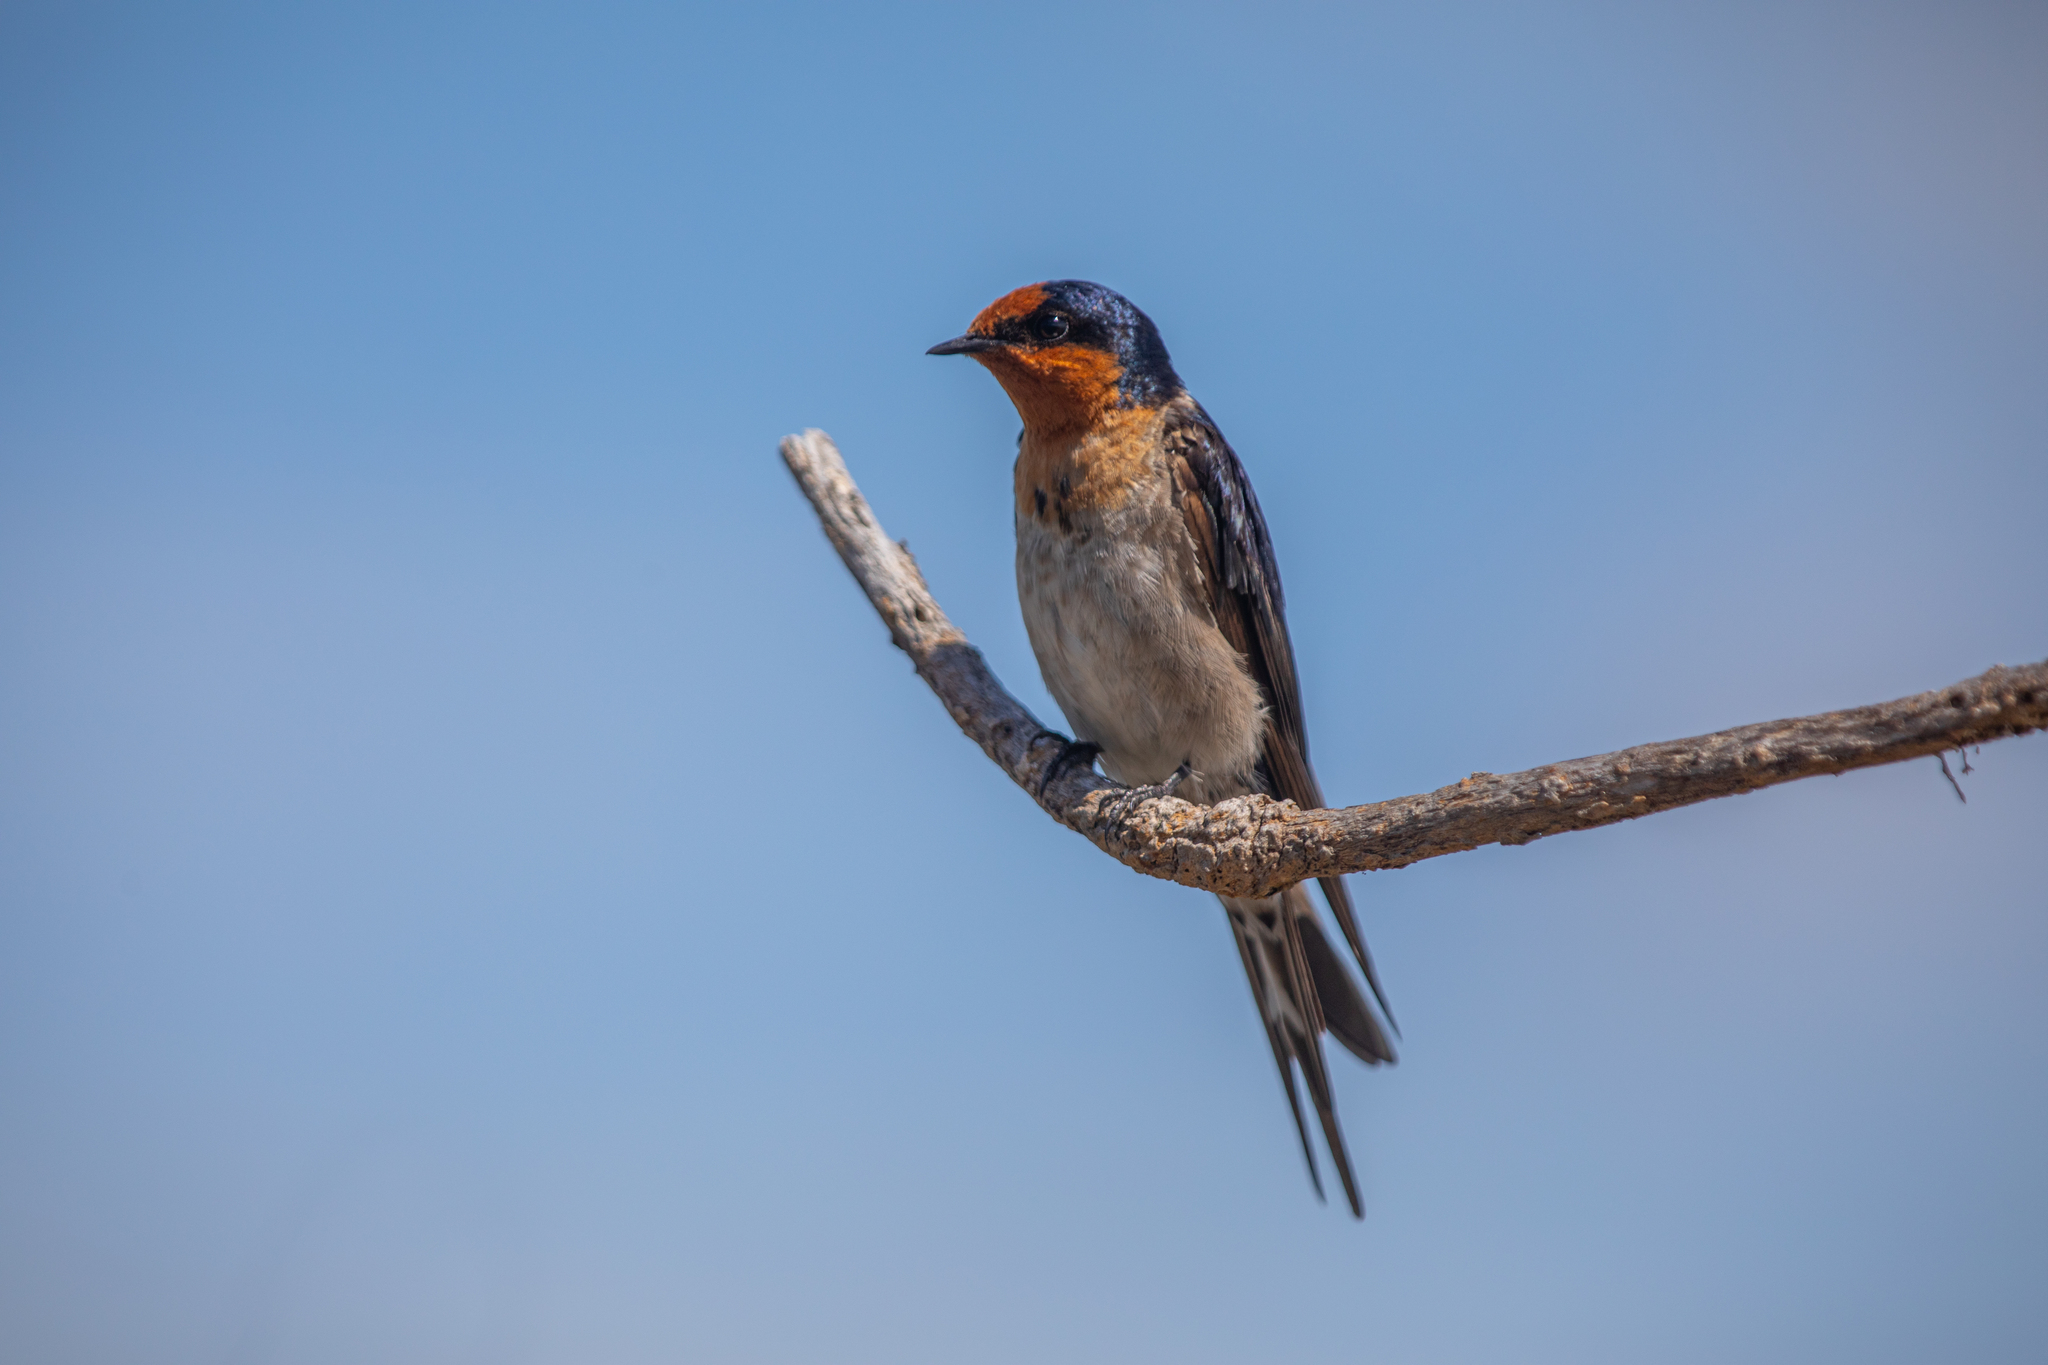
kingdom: Animalia
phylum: Chordata
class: Aves
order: Passeriformes
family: Hirundinidae
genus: Hirundo
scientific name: Hirundo neoxena
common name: Welcome swallow
